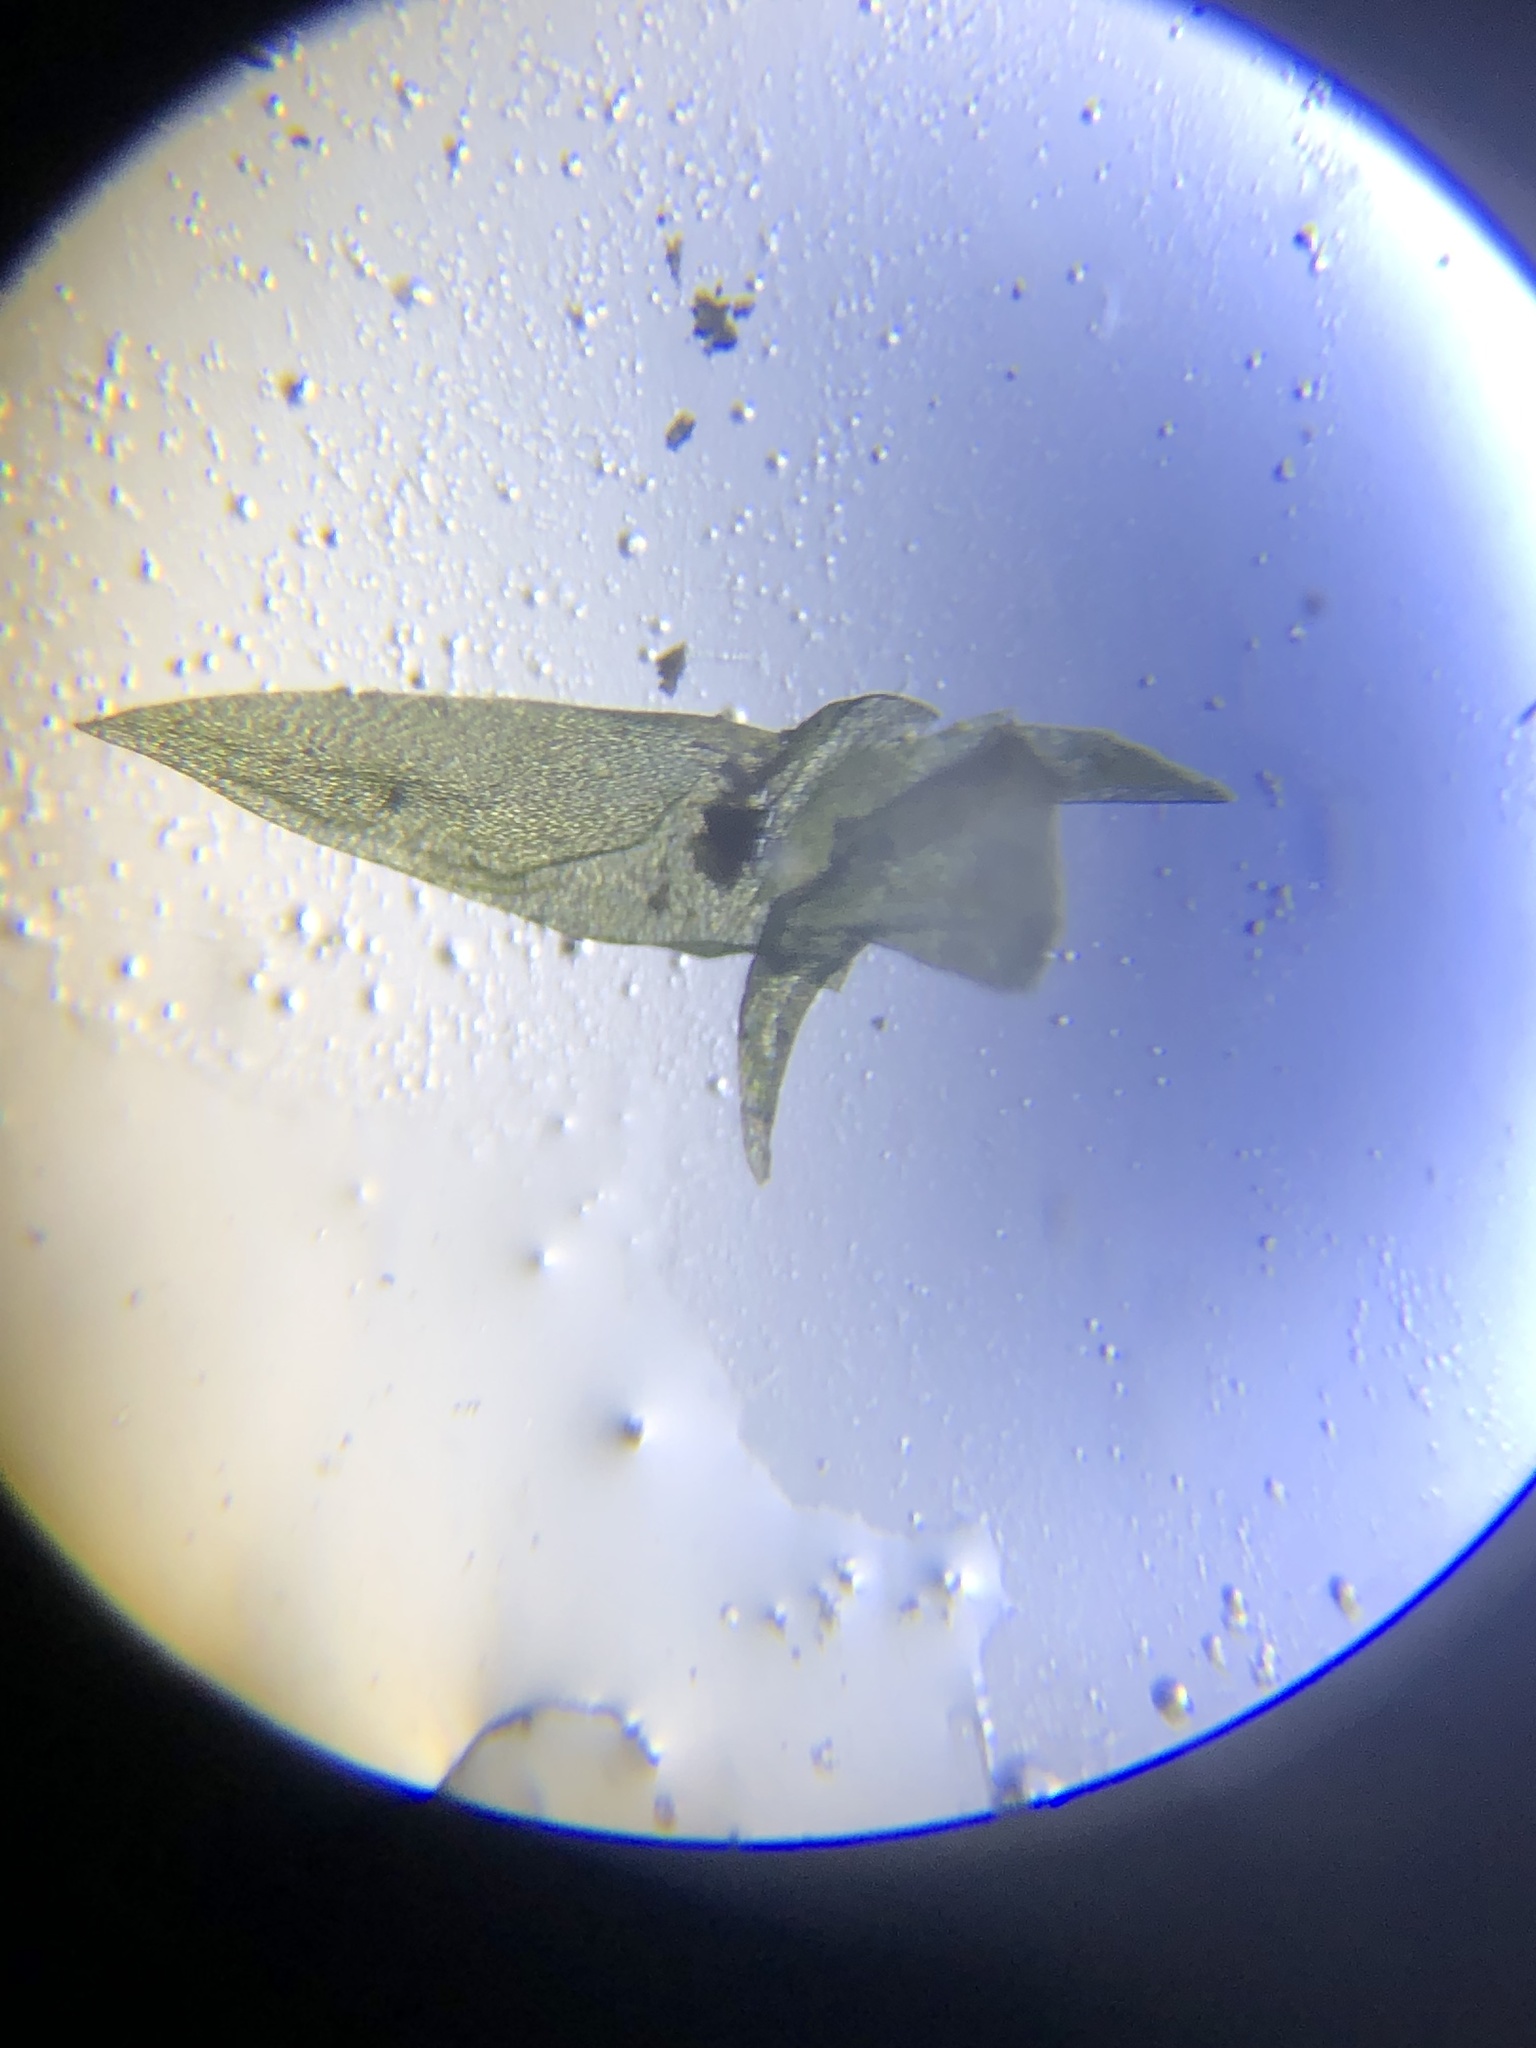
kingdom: Plantae
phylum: Bryophyta
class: Bryopsida
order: Hypnales
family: Pylaisiaceae
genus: Calliergonella
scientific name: Calliergonella lindbergii
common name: Lindberg's plait-moss
